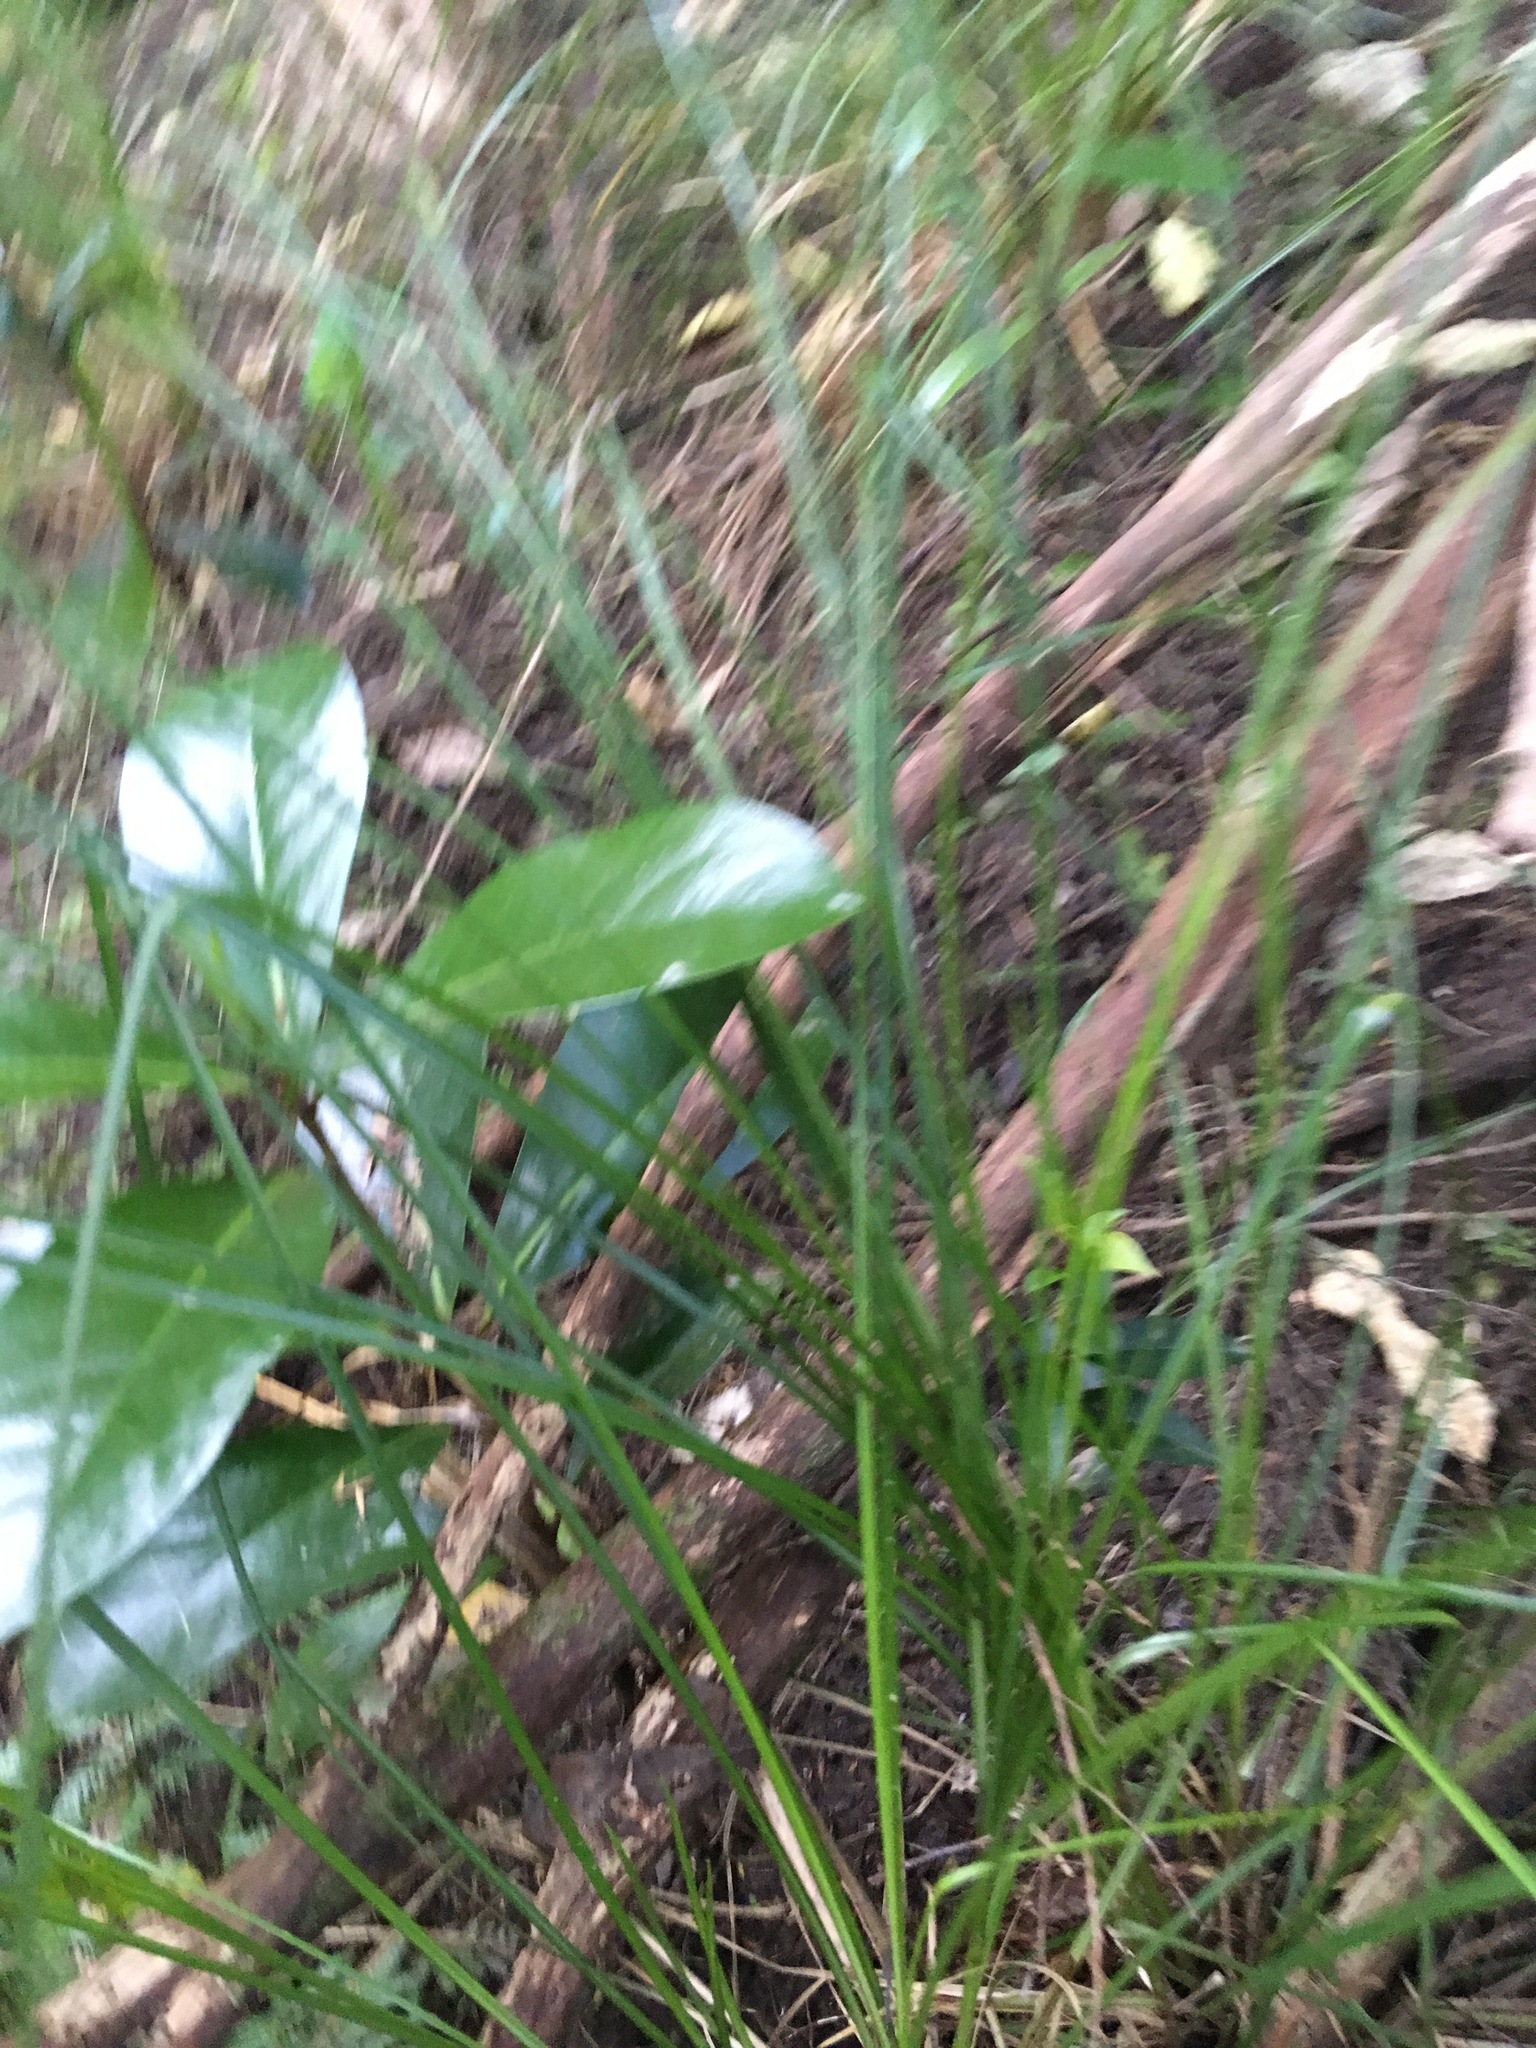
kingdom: Plantae
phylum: Tracheophyta
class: Magnoliopsida
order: Cucurbitales
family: Corynocarpaceae
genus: Corynocarpus
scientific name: Corynocarpus laevigatus
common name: New zealand laurel
